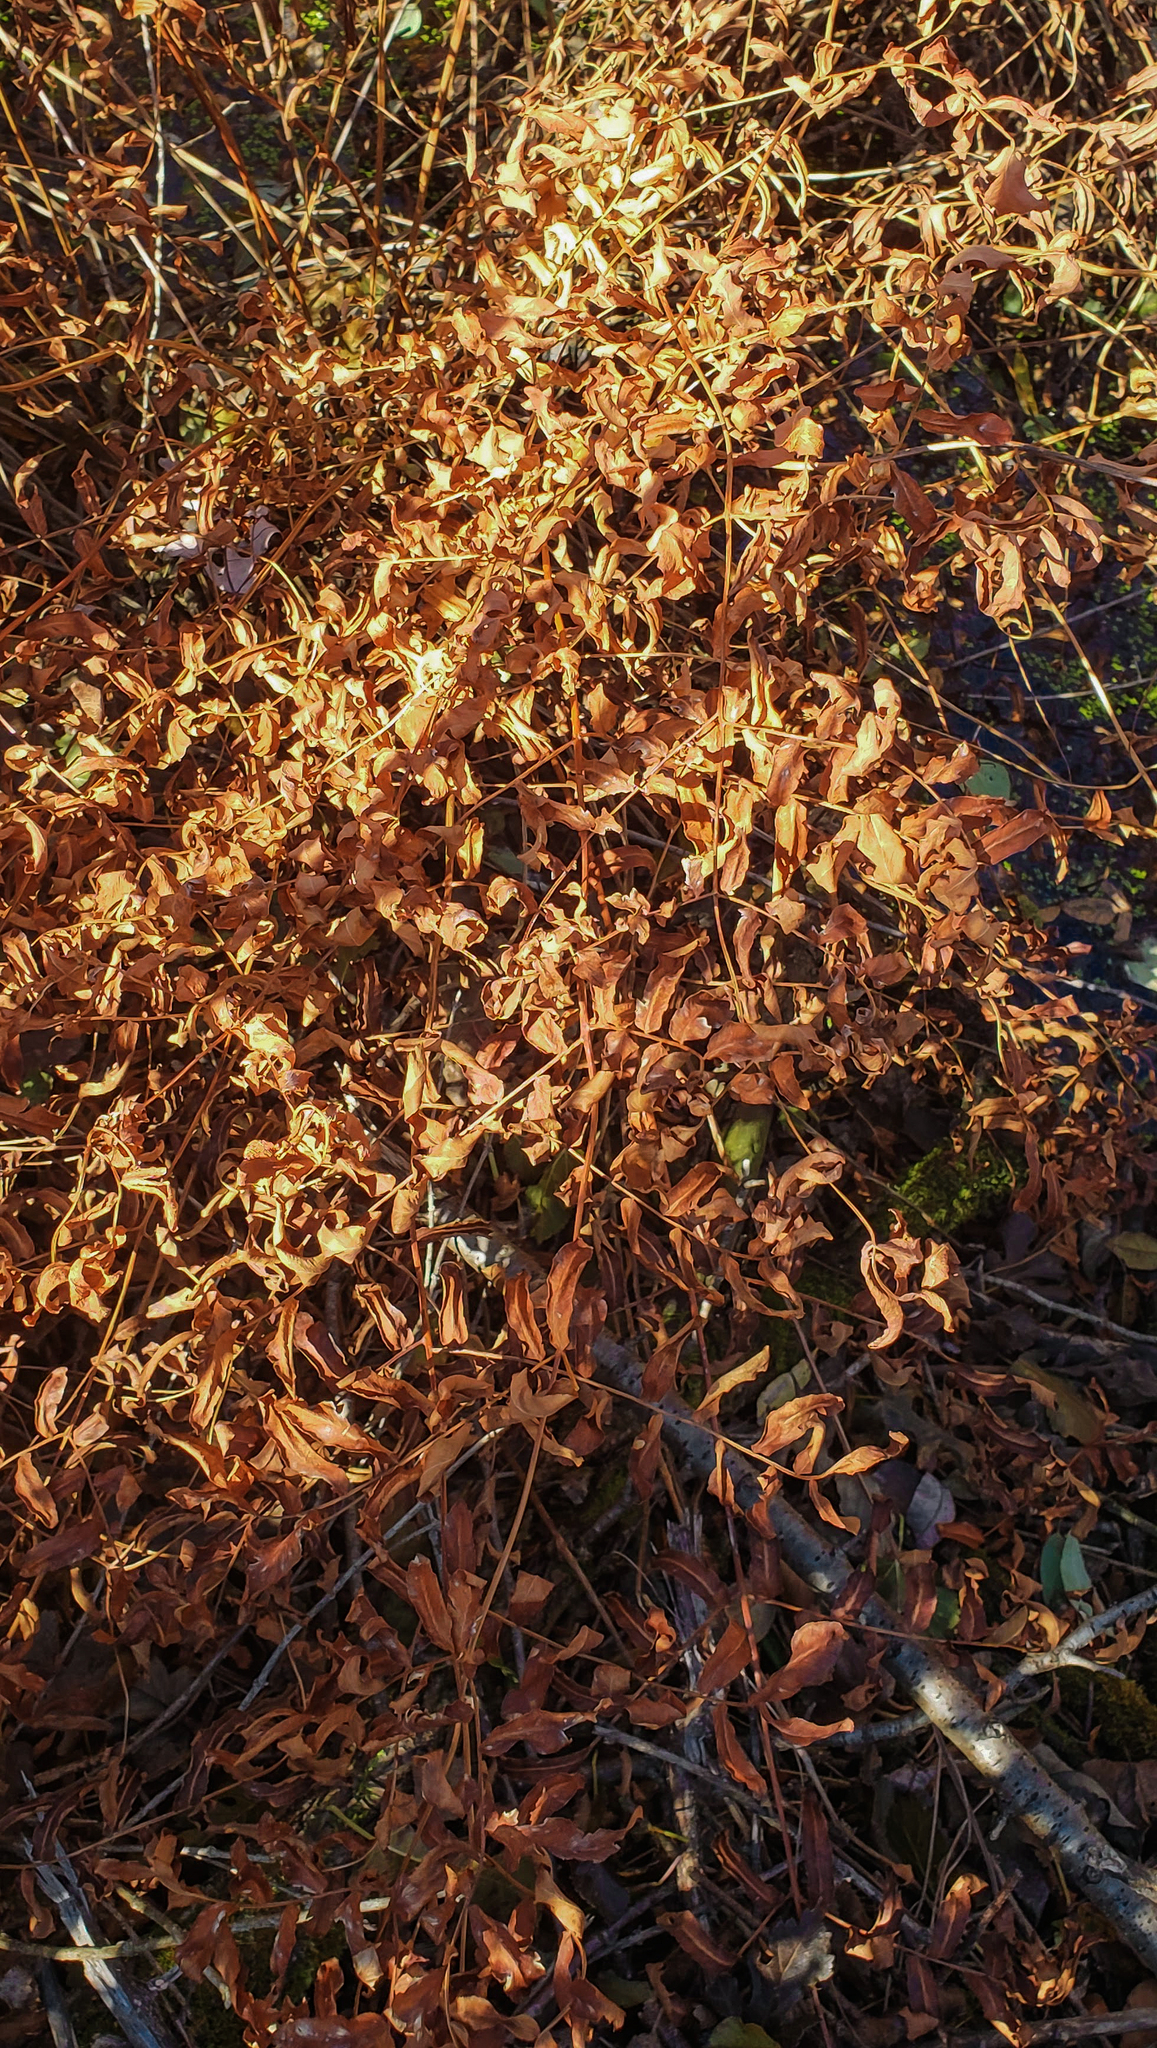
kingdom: Plantae
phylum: Tracheophyta
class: Polypodiopsida
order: Osmundales
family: Osmundaceae
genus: Osmunda
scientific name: Osmunda spectabilis
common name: American royal fern
